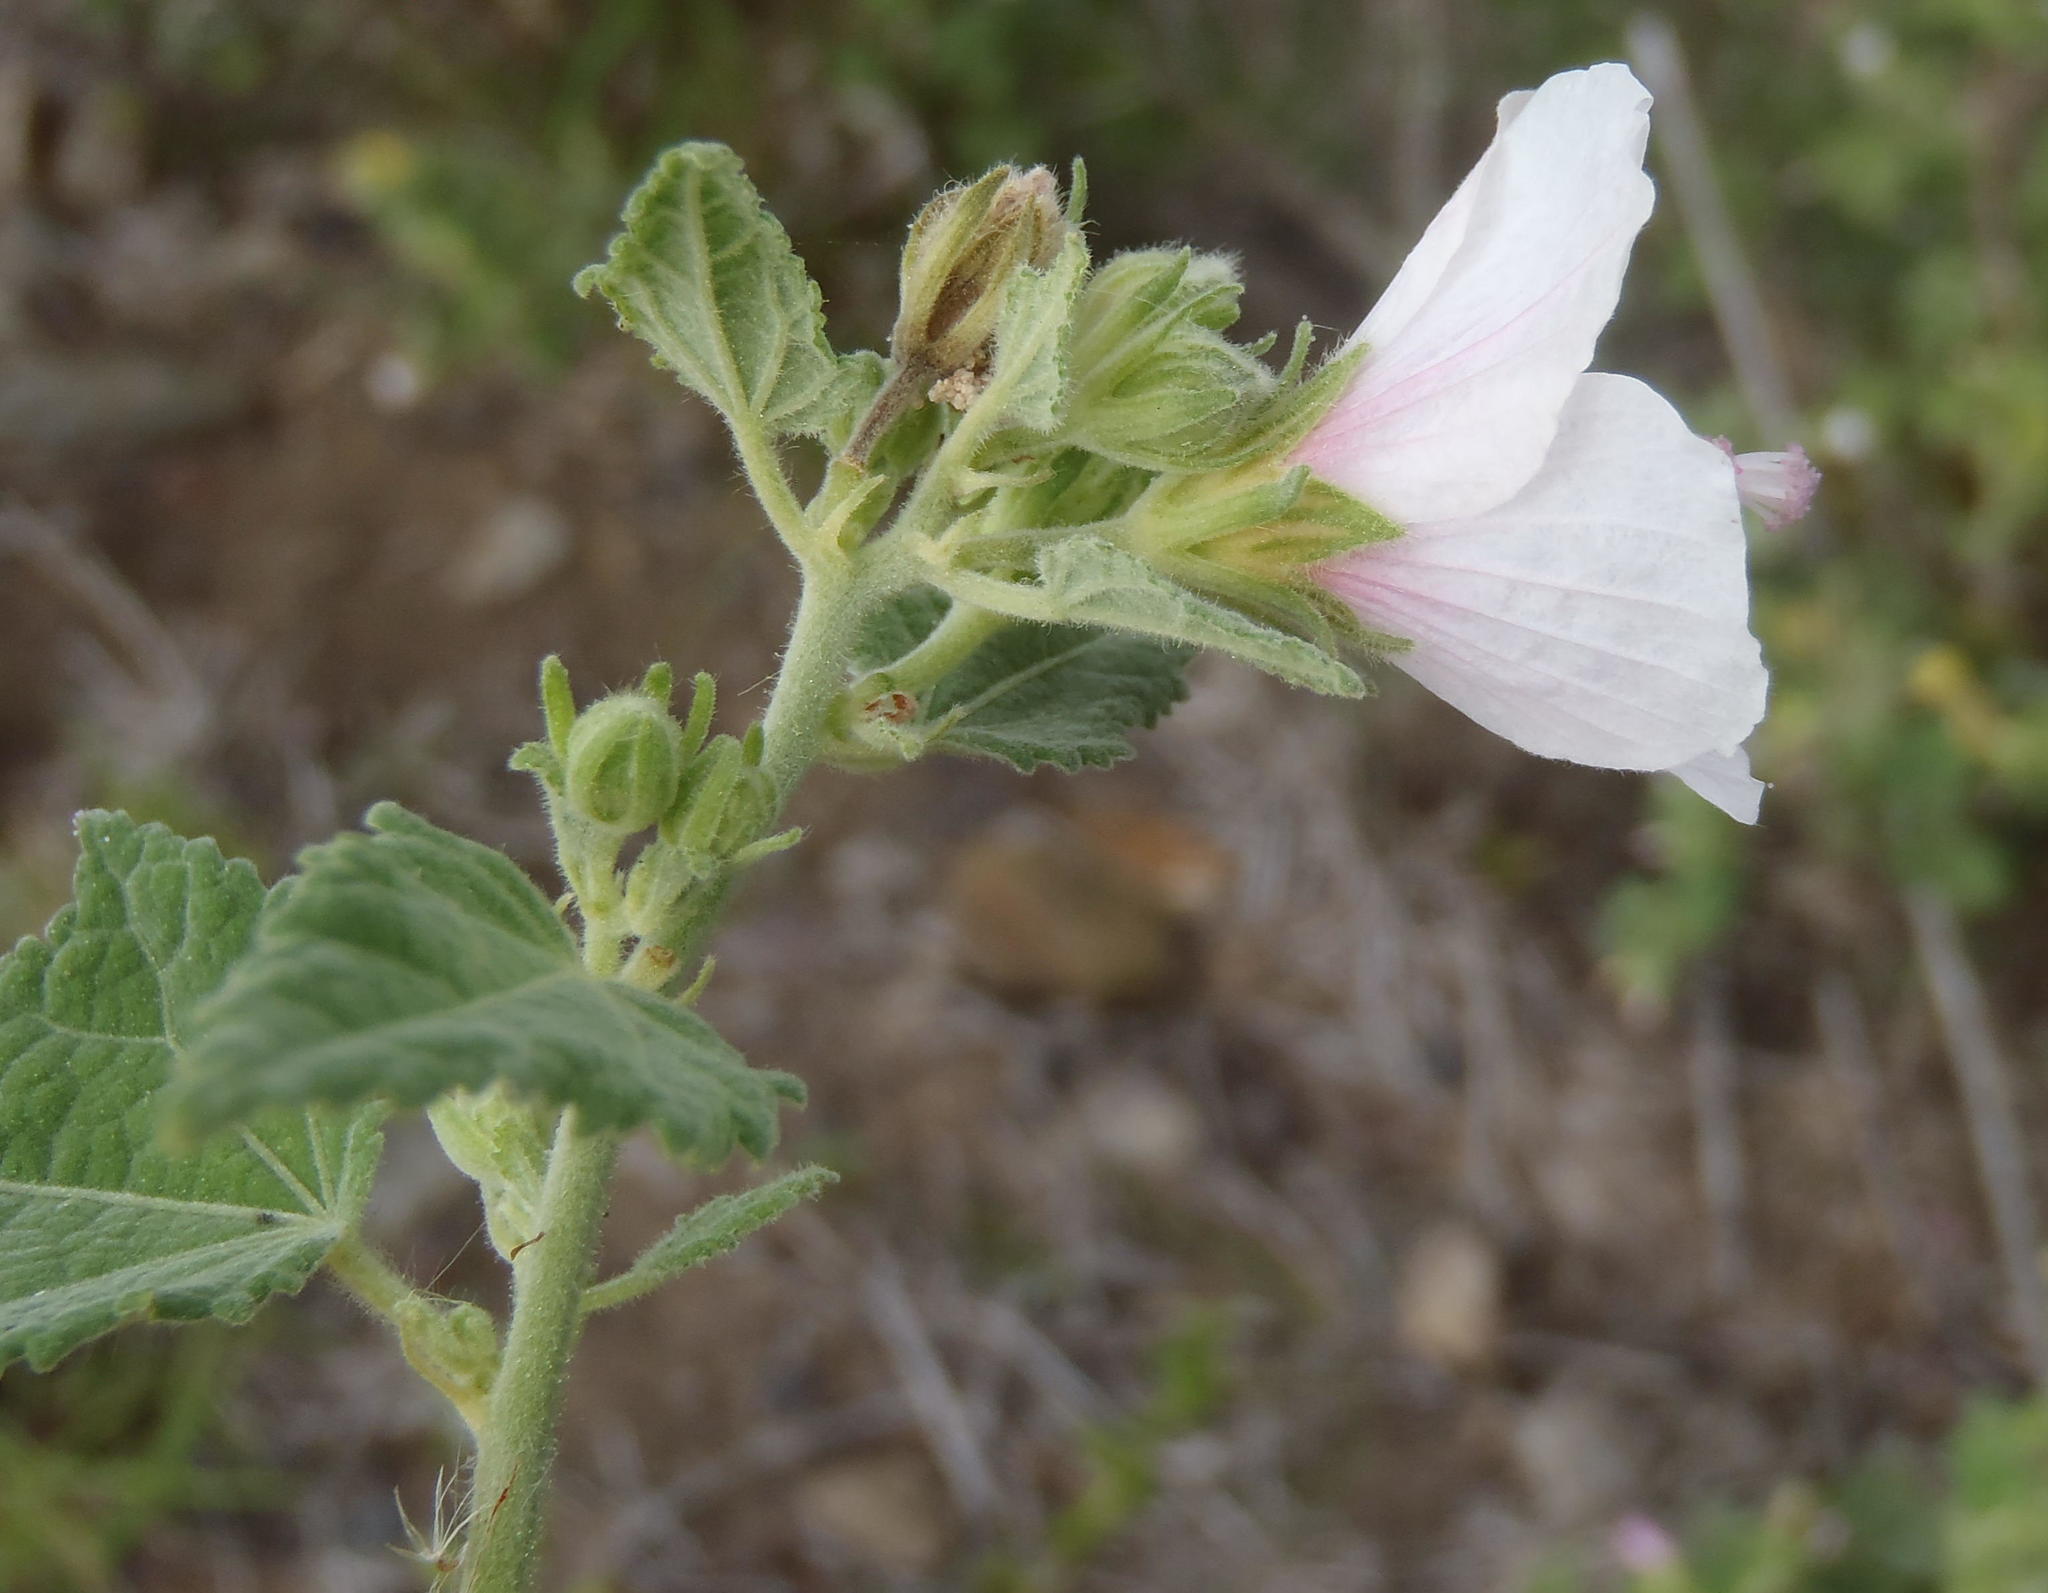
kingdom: Plantae
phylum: Tracheophyta
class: Magnoliopsida
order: Malvales
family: Malvaceae
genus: Pavonia
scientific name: Pavonia columella
